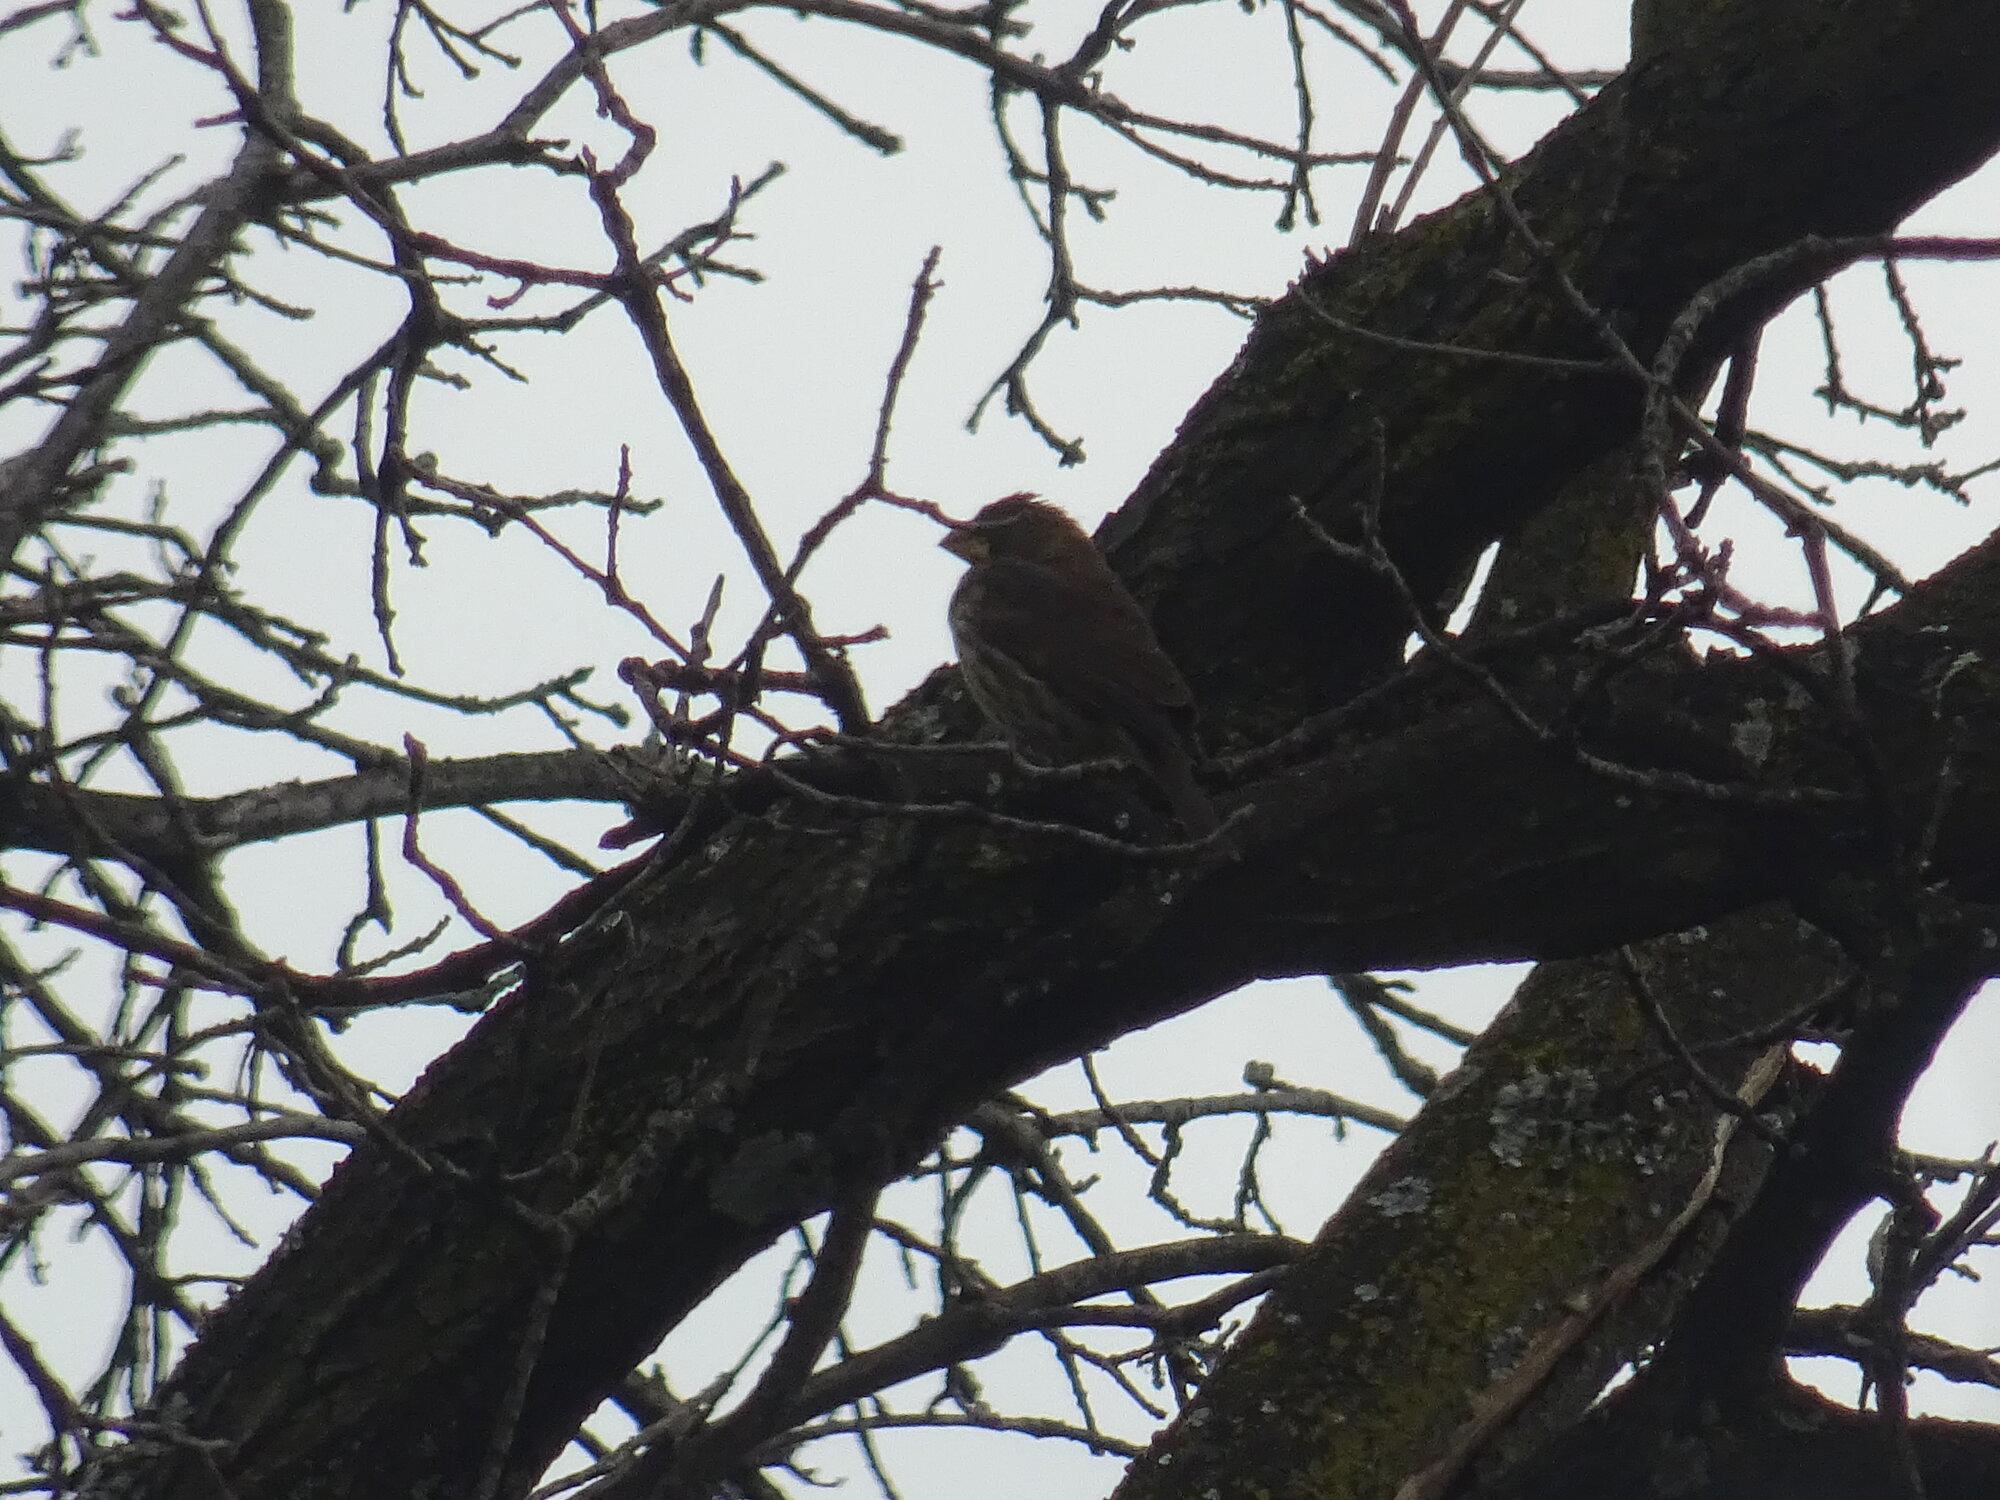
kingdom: Animalia
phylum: Chordata
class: Aves
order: Passeriformes
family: Ploceidae
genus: Amblyospiza
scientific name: Amblyospiza albifrons
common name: Thick-billed weaver
